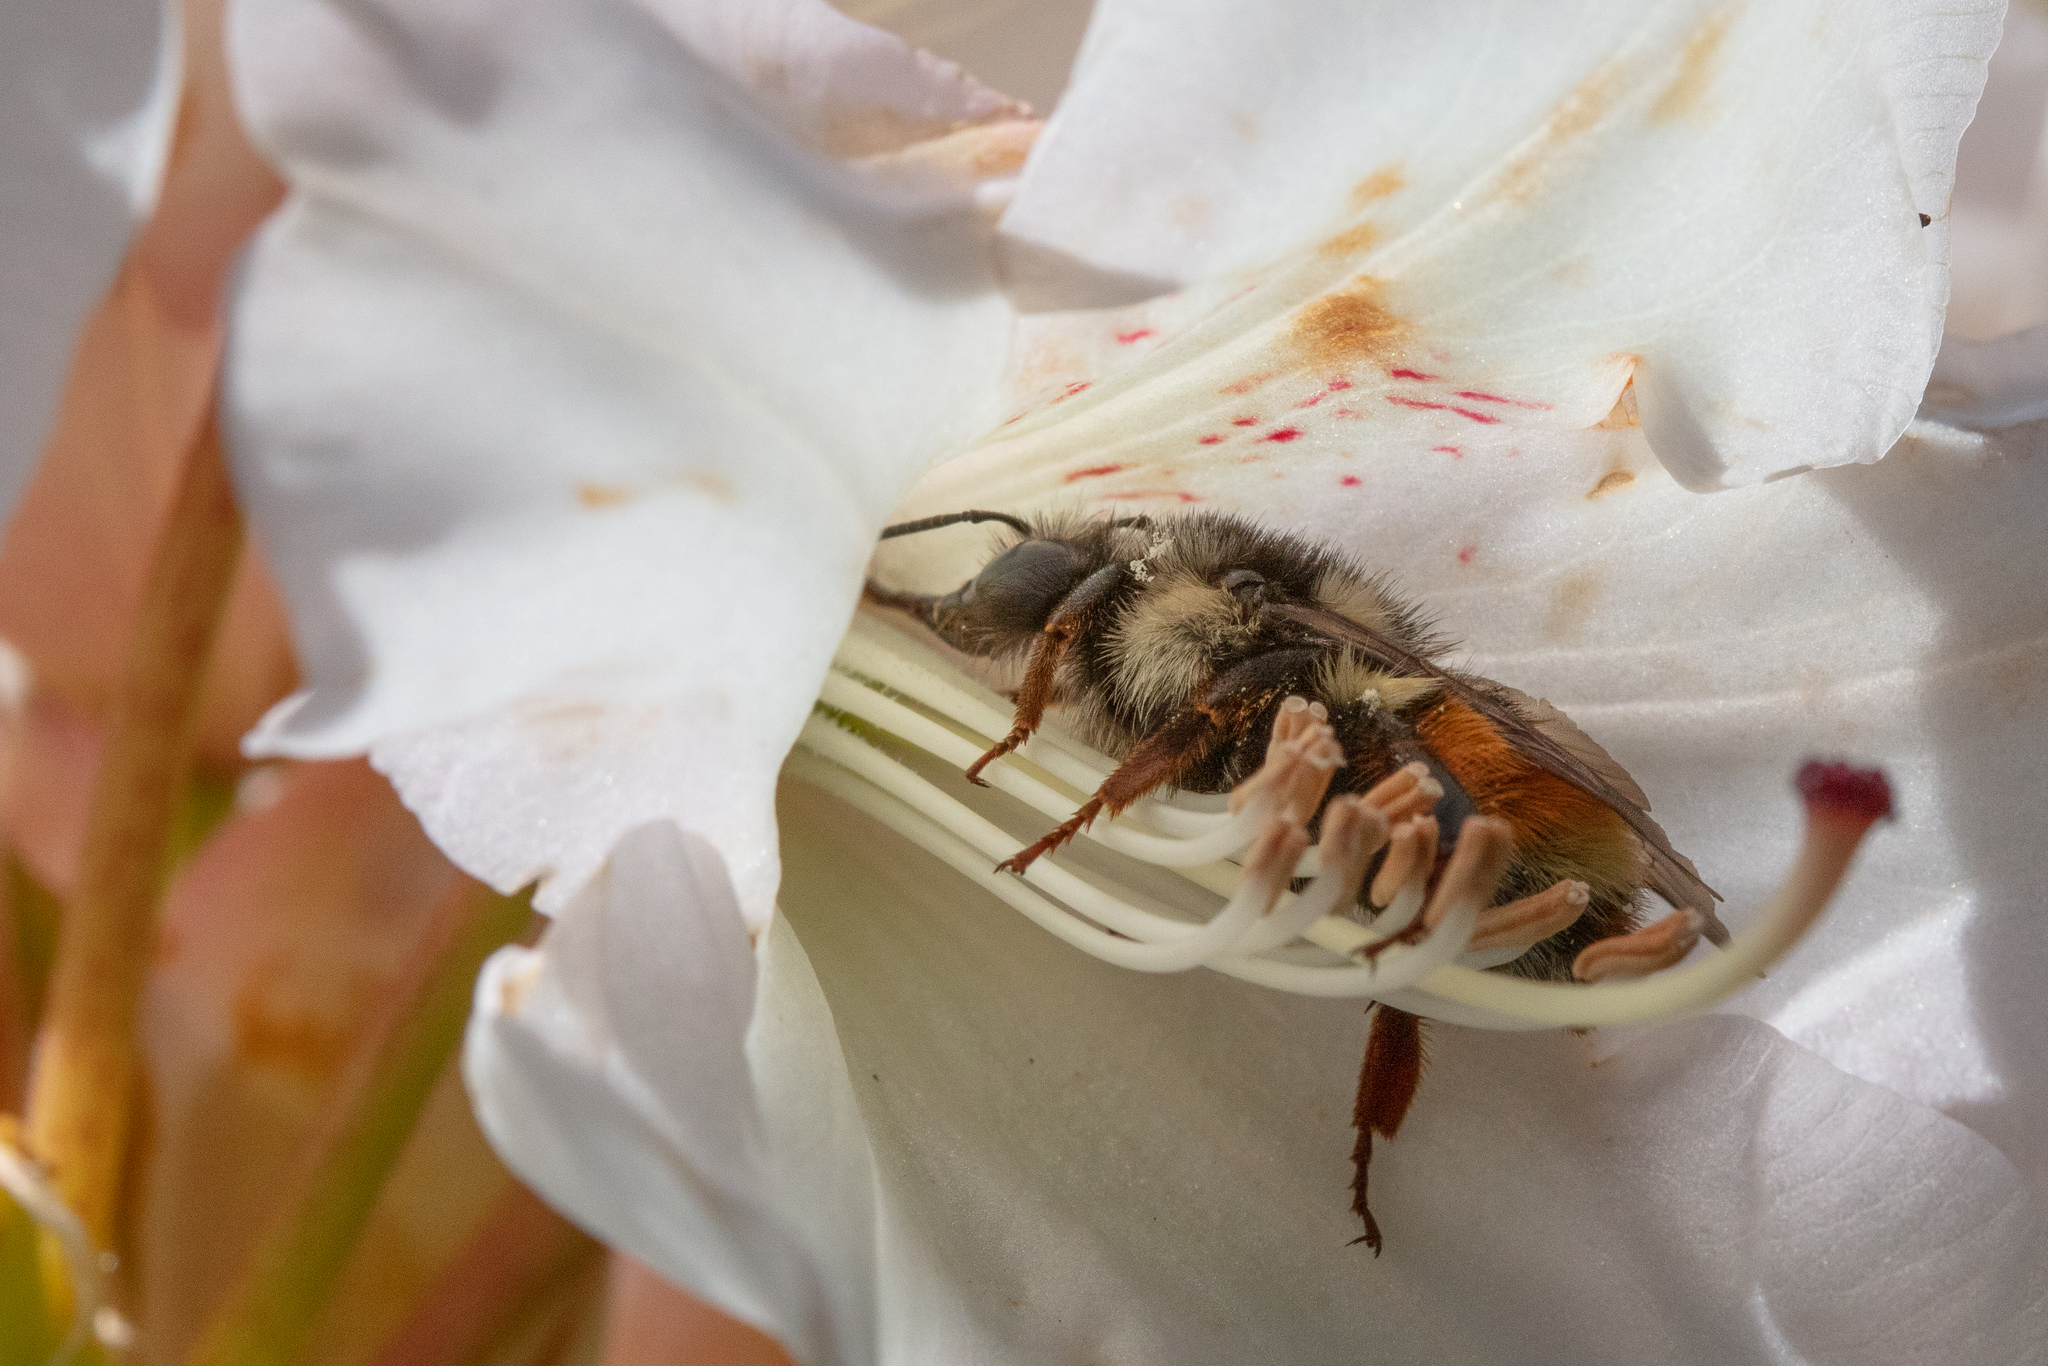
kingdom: Animalia
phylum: Arthropoda
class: Insecta
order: Hymenoptera
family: Apidae
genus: Bombus
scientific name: Bombus melanopygus
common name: Black tail bumble bee
